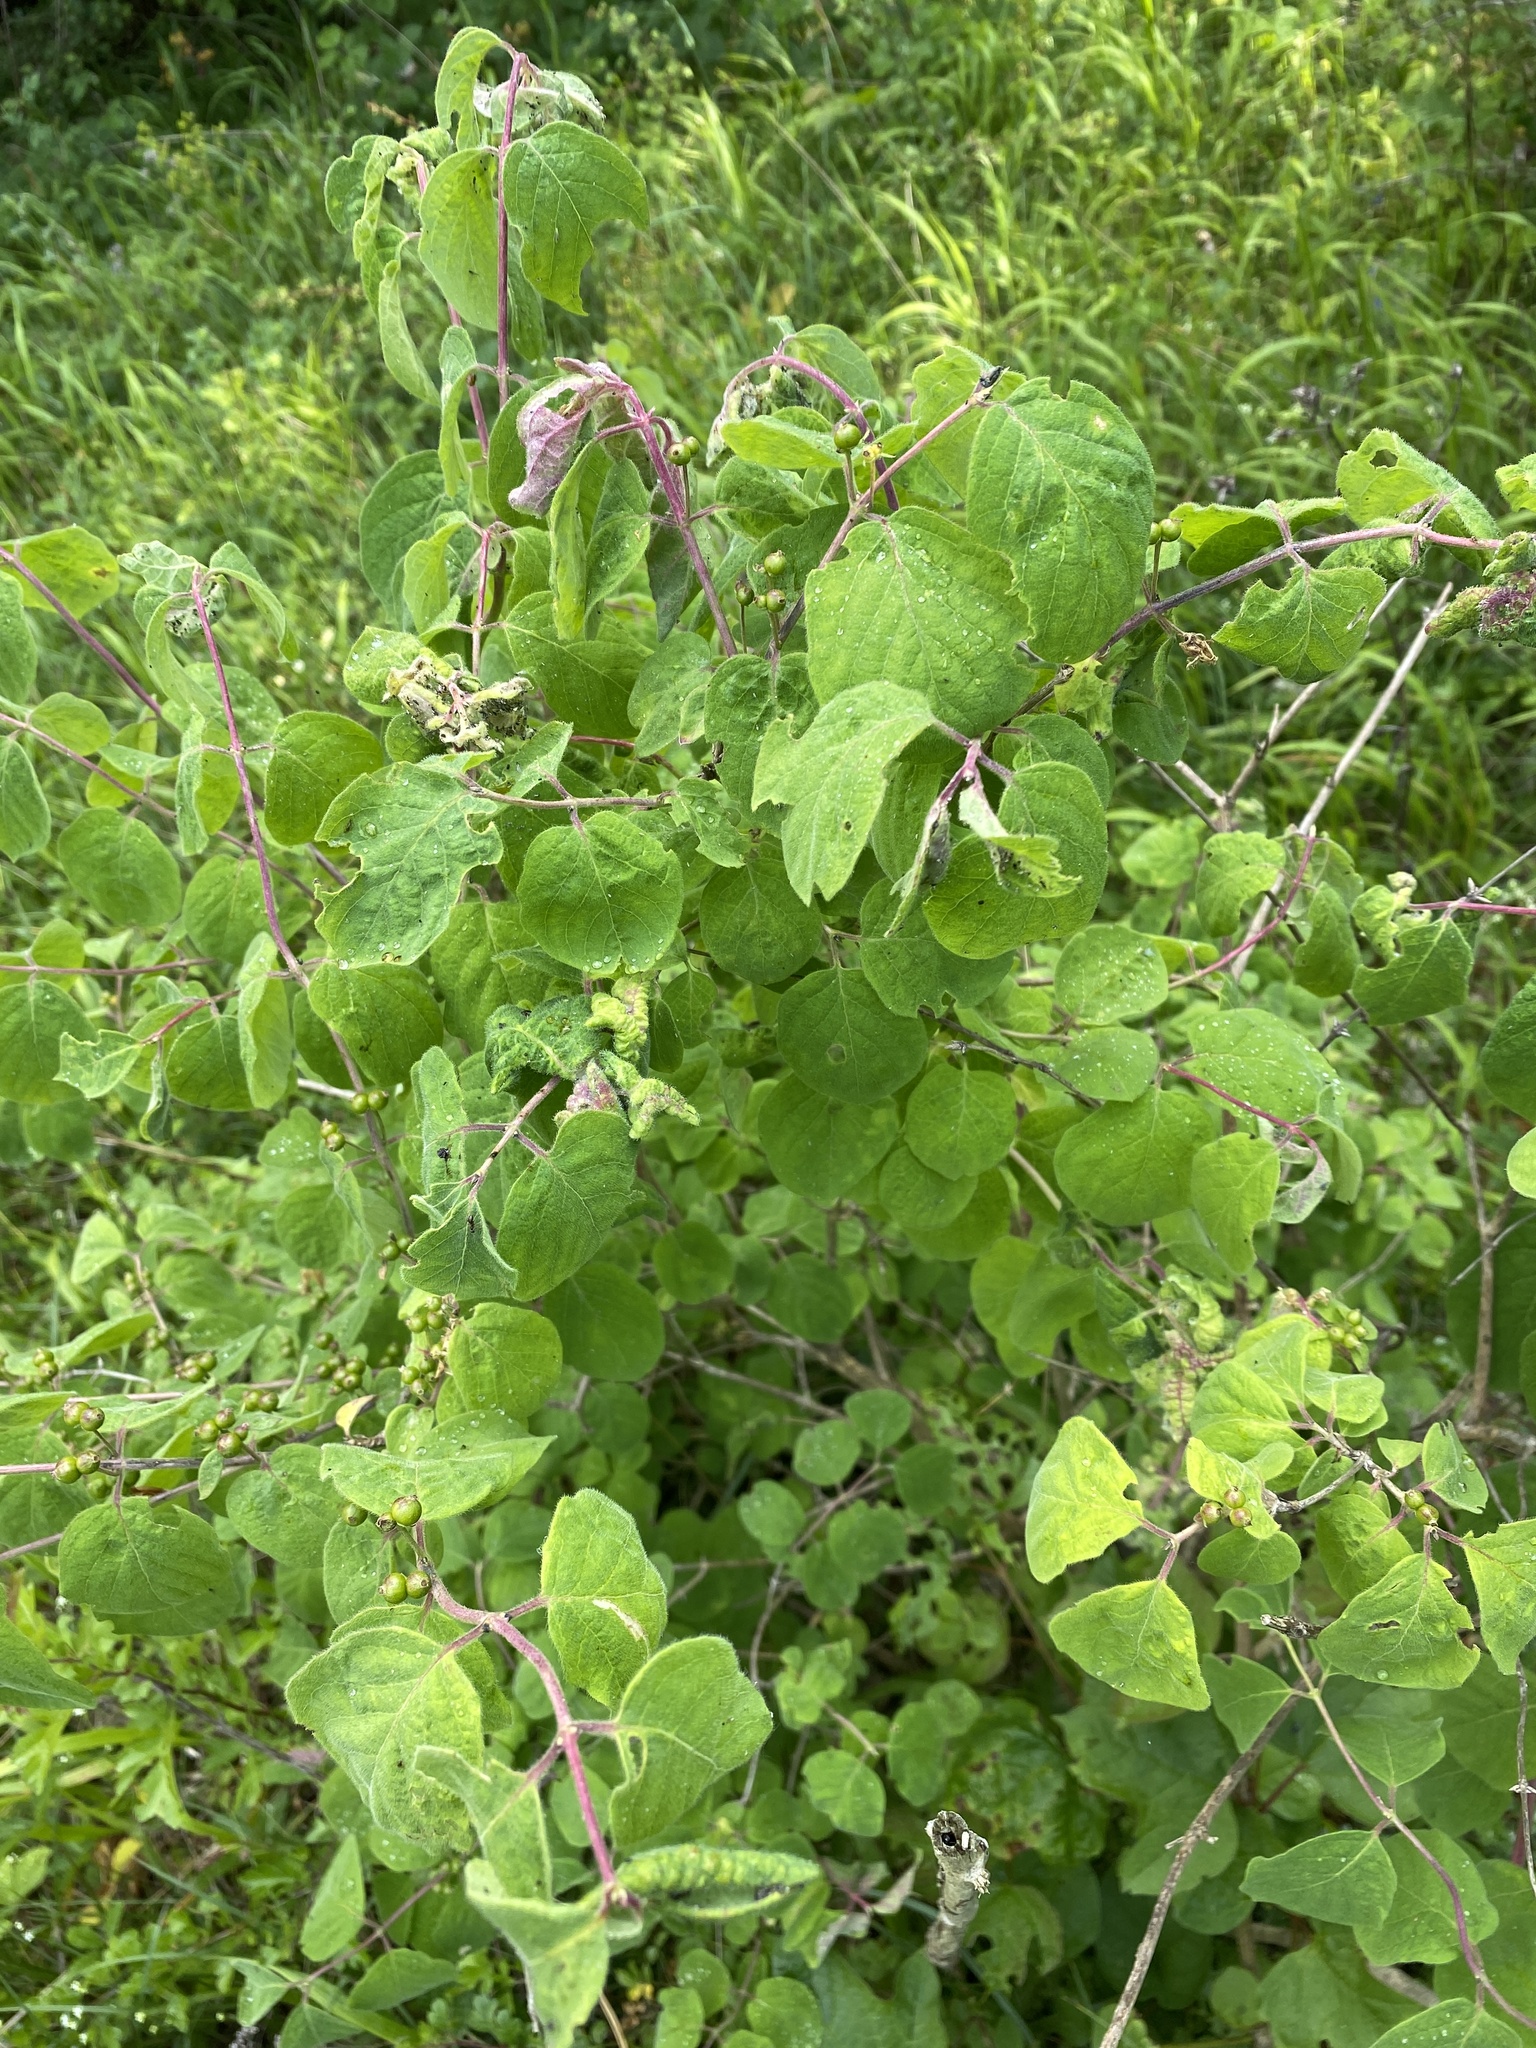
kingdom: Plantae
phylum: Tracheophyta
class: Magnoliopsida
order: Dipsacales
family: Caprifoliaceae
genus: Lonicera
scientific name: Lonicera xylosteum
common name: Fly honeysuckle
